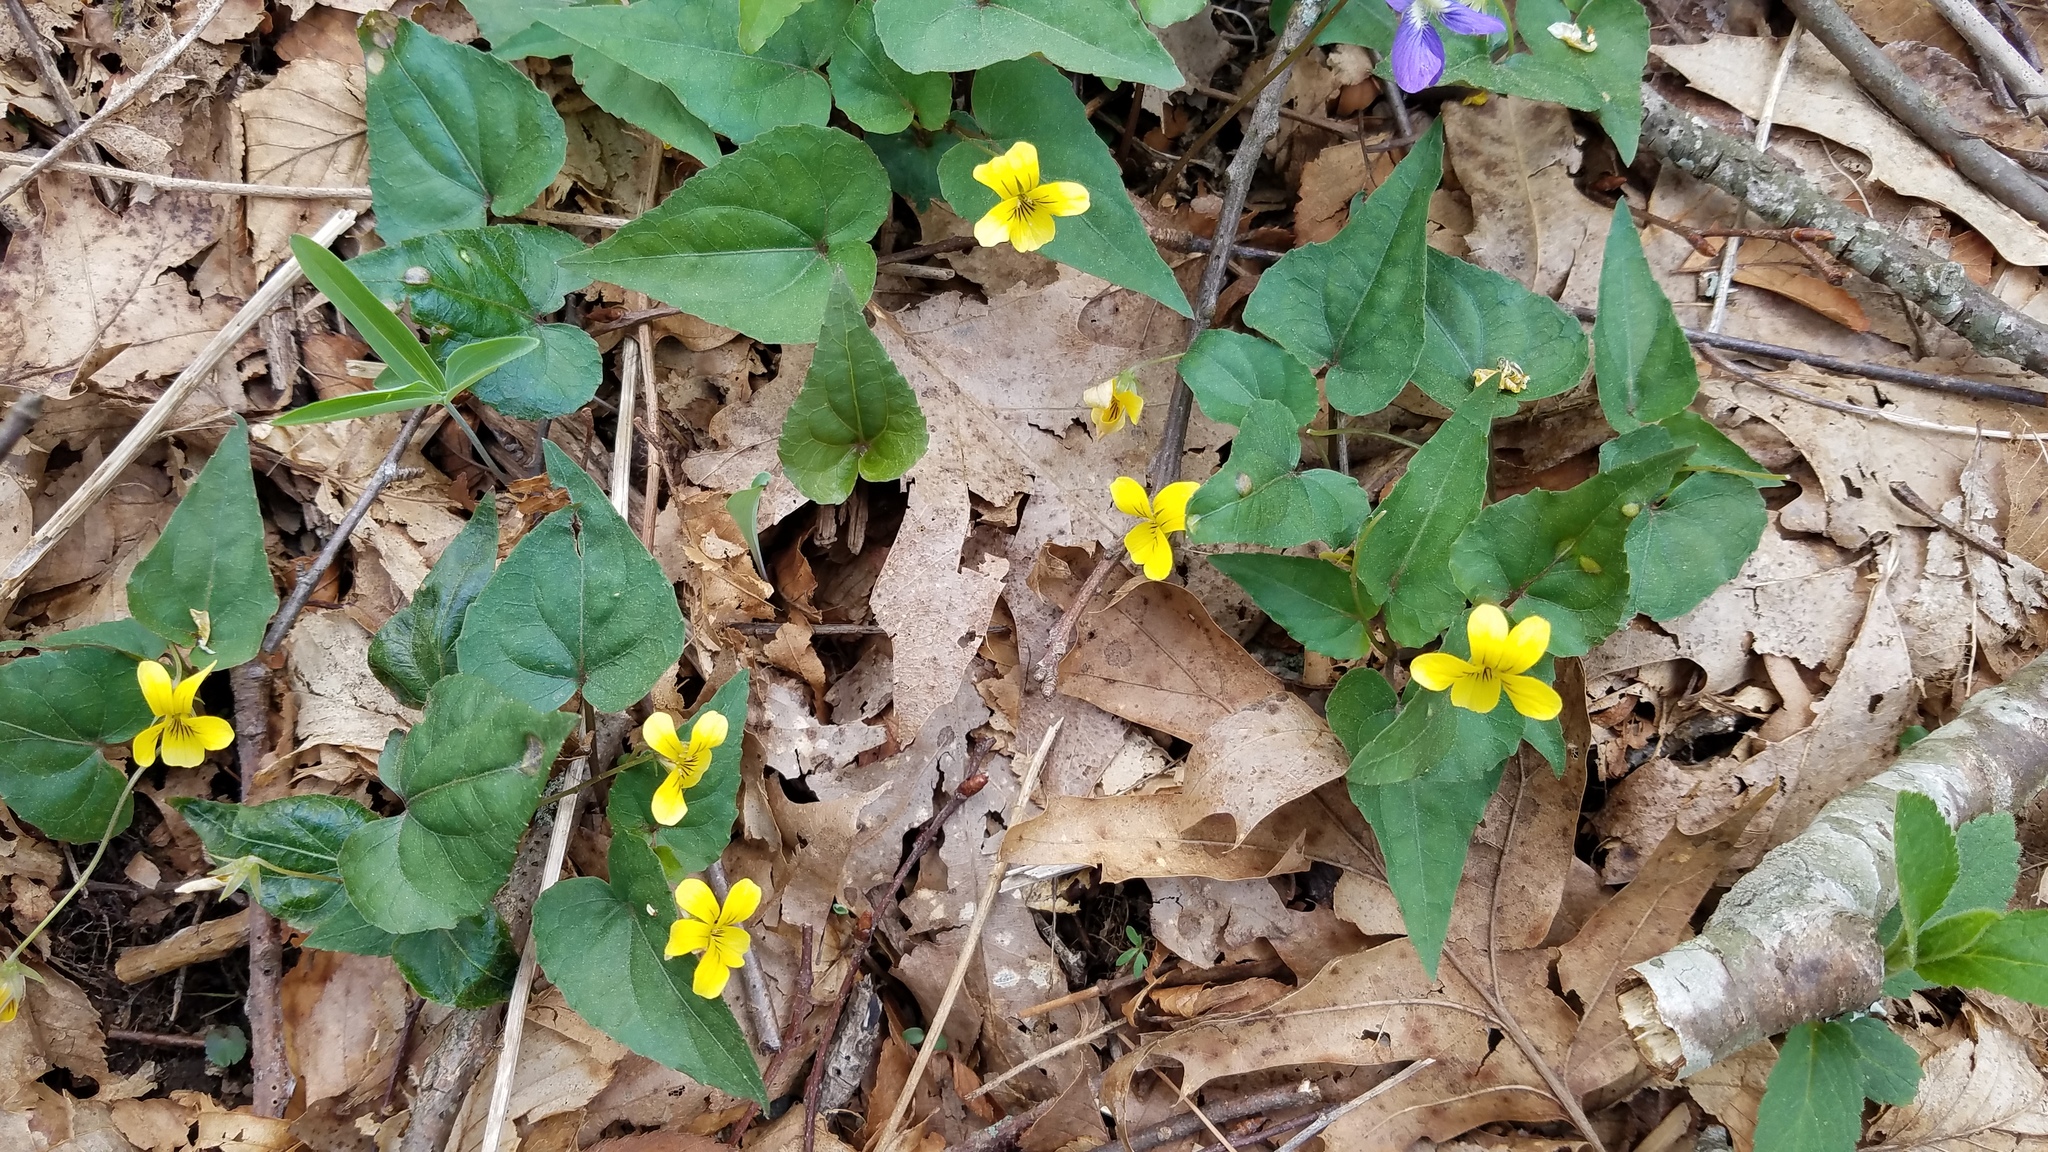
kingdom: Plantae
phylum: Tracheophyta
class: Magnoliopsida
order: Malpighiales
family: Violaceae
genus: Viola
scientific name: Viola hastata
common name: Spear-leaf violet
